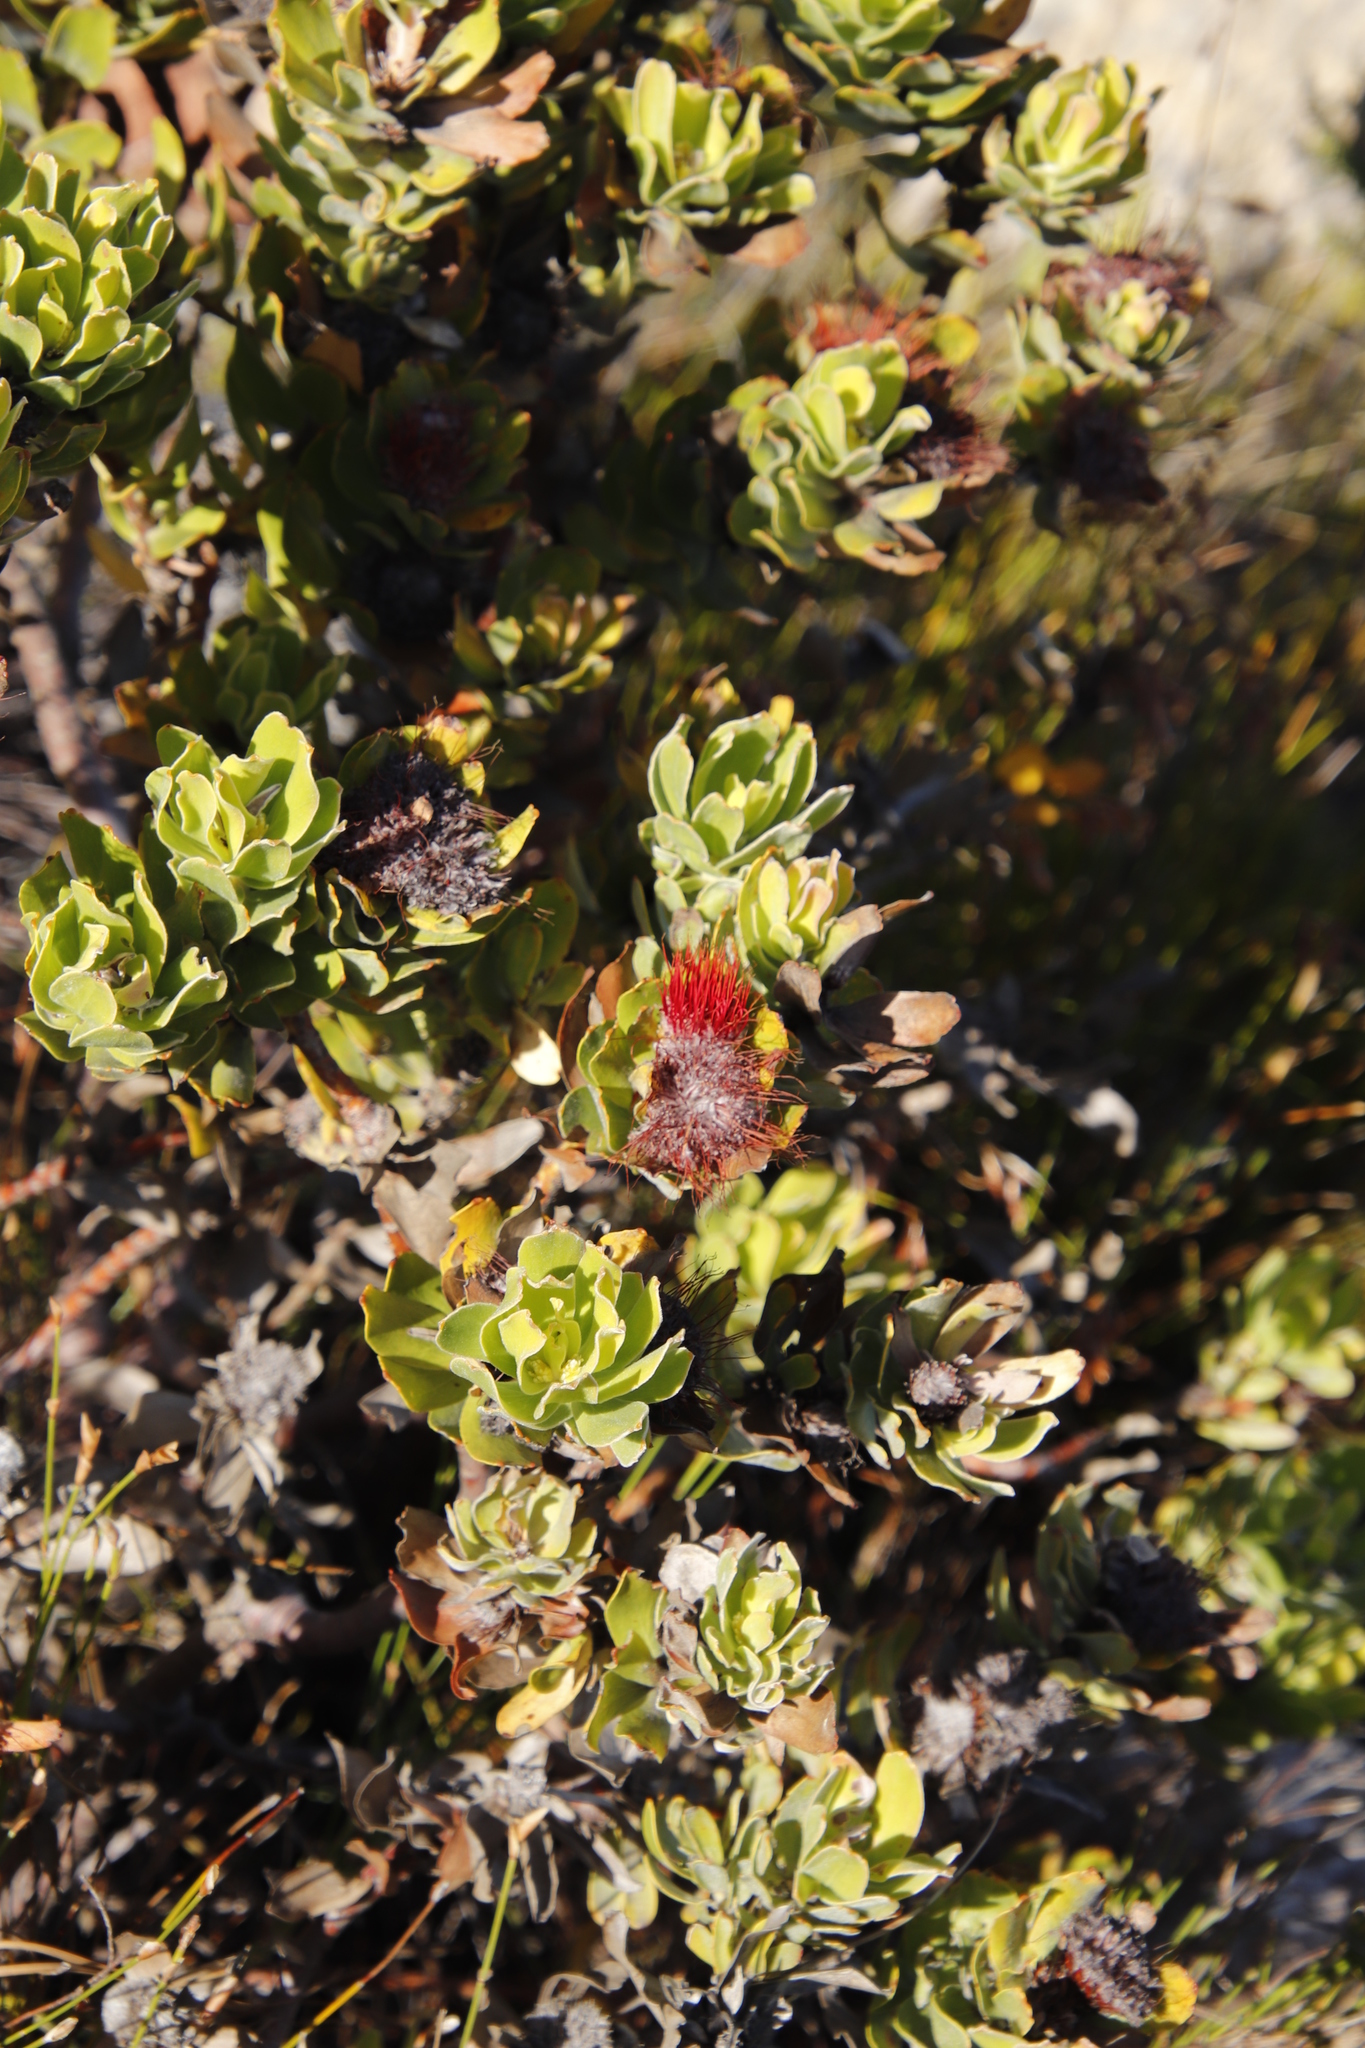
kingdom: Plantae
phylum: Tracheophyta
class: Magnoliopsida
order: Proteales
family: Proteaceae
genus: Leucospermum
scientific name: Leucospermum oleifolium
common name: Matches
